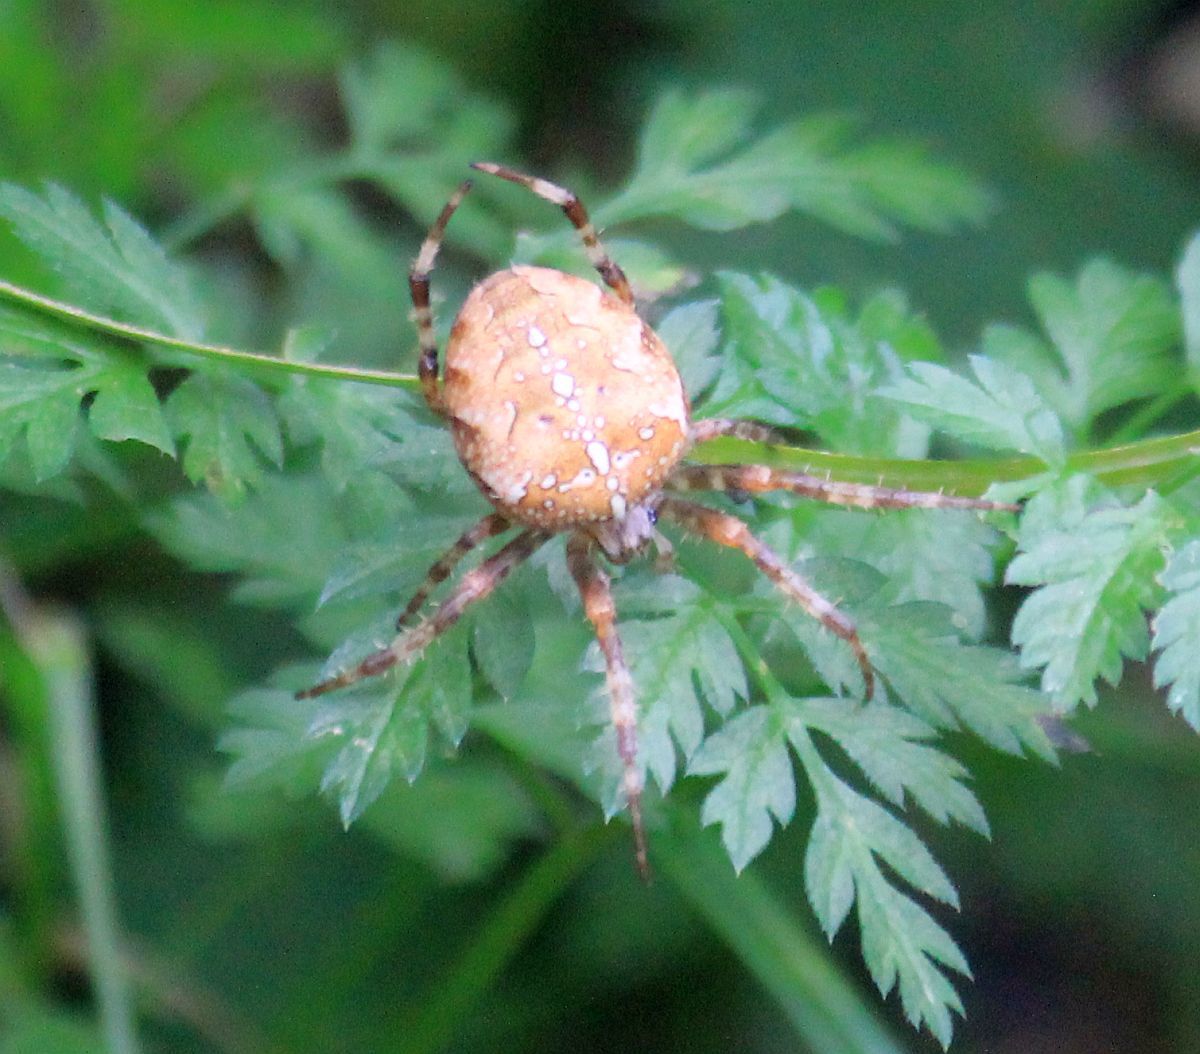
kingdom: Animalia
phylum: Arthropoda
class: Arachnida
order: Araneae
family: Araneidae
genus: Araneus
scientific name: Araneus diadematus
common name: Cross orbweaver
